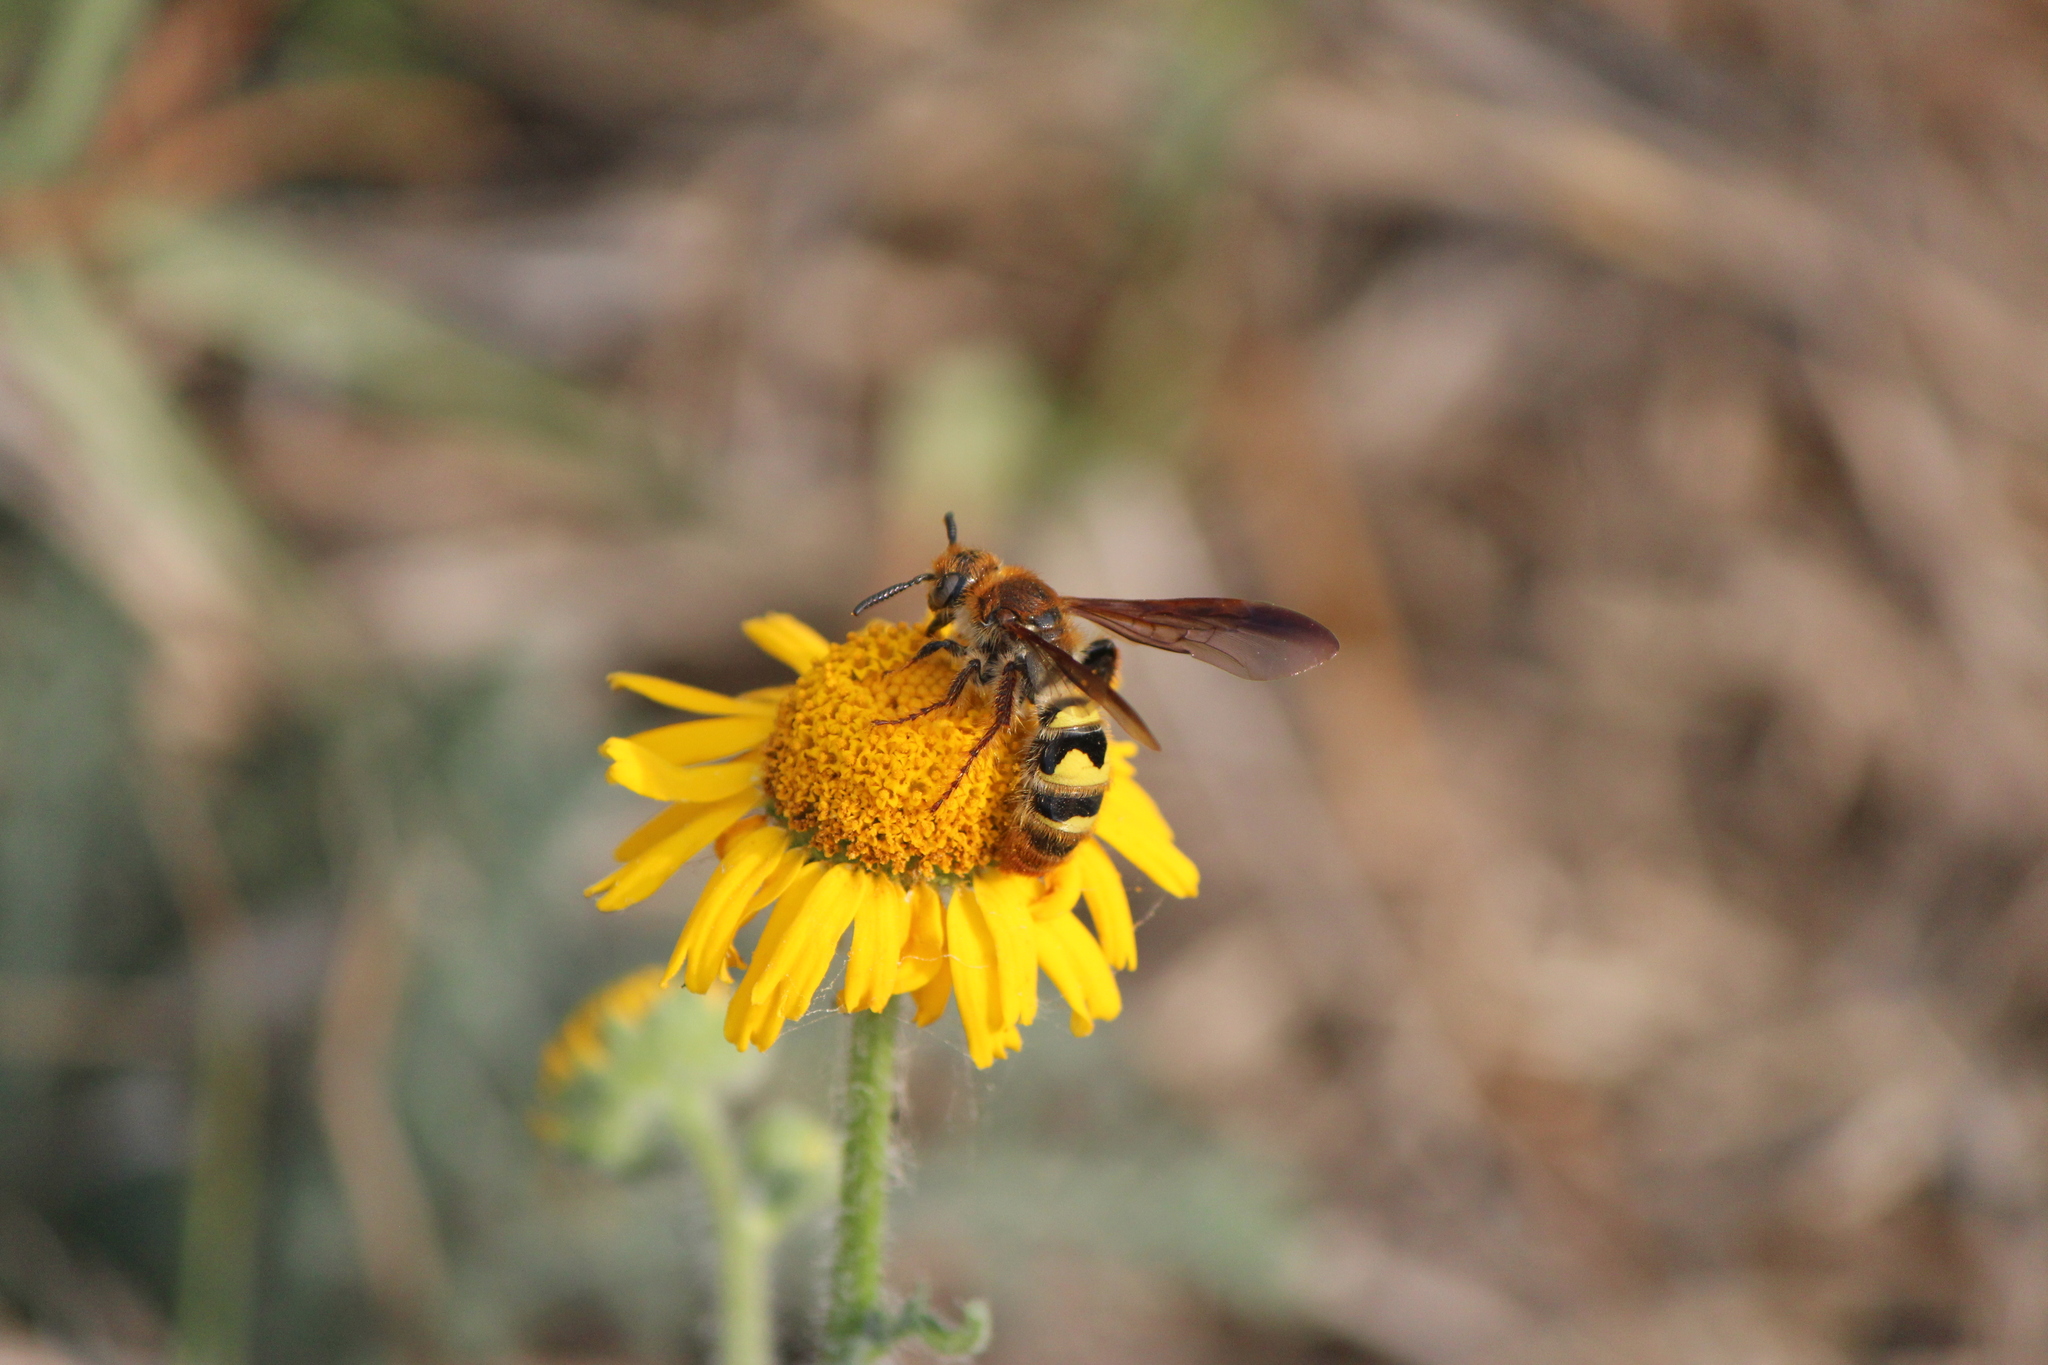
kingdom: Animalia
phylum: Arthropoda
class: Insecta
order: Hymenoptera
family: Scoliidae
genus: Xanthocampsomeris
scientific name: Xanthocampsomeris completa
